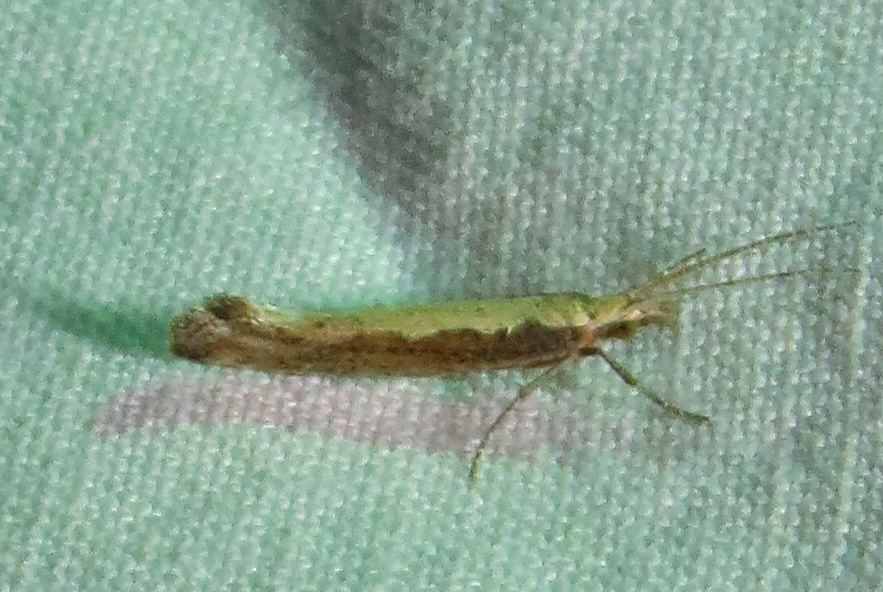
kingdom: Animalia
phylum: Arthropoda
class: Insecta
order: Lepidoptera
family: Plutellidae
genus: Plutella
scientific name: Plutella xylostella
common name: Diamond-back moth
